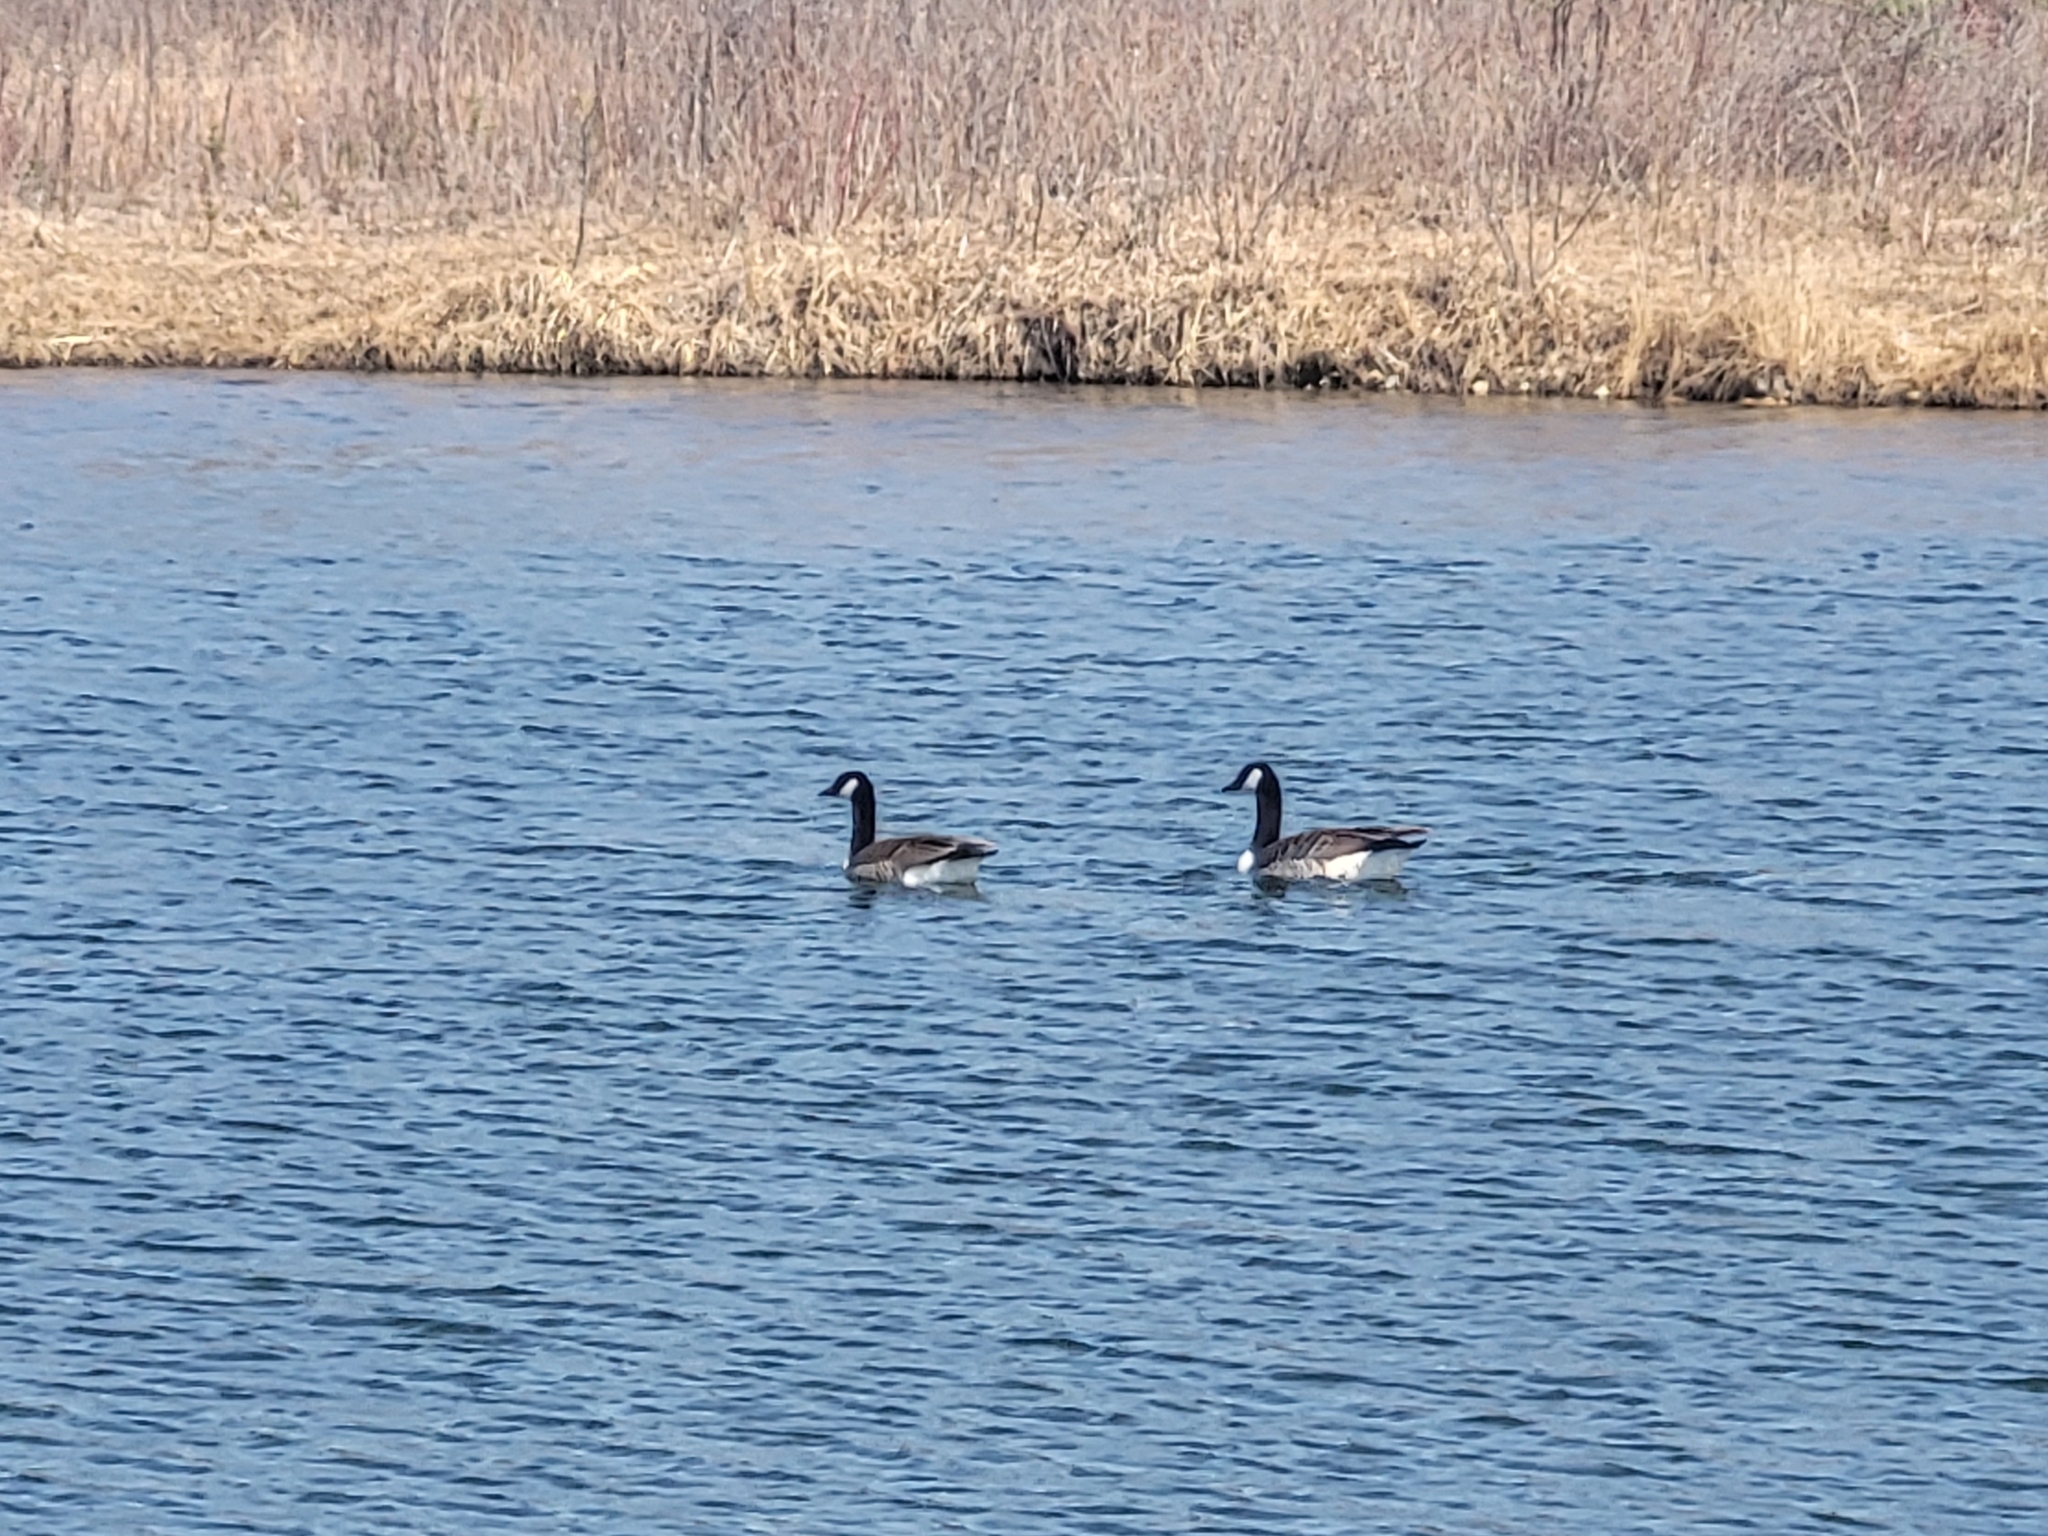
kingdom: Animalia
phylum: Chordata
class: Aves
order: Anseriformes
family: Anatidae
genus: Branta
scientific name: Branta canadensis
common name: Canada goose
